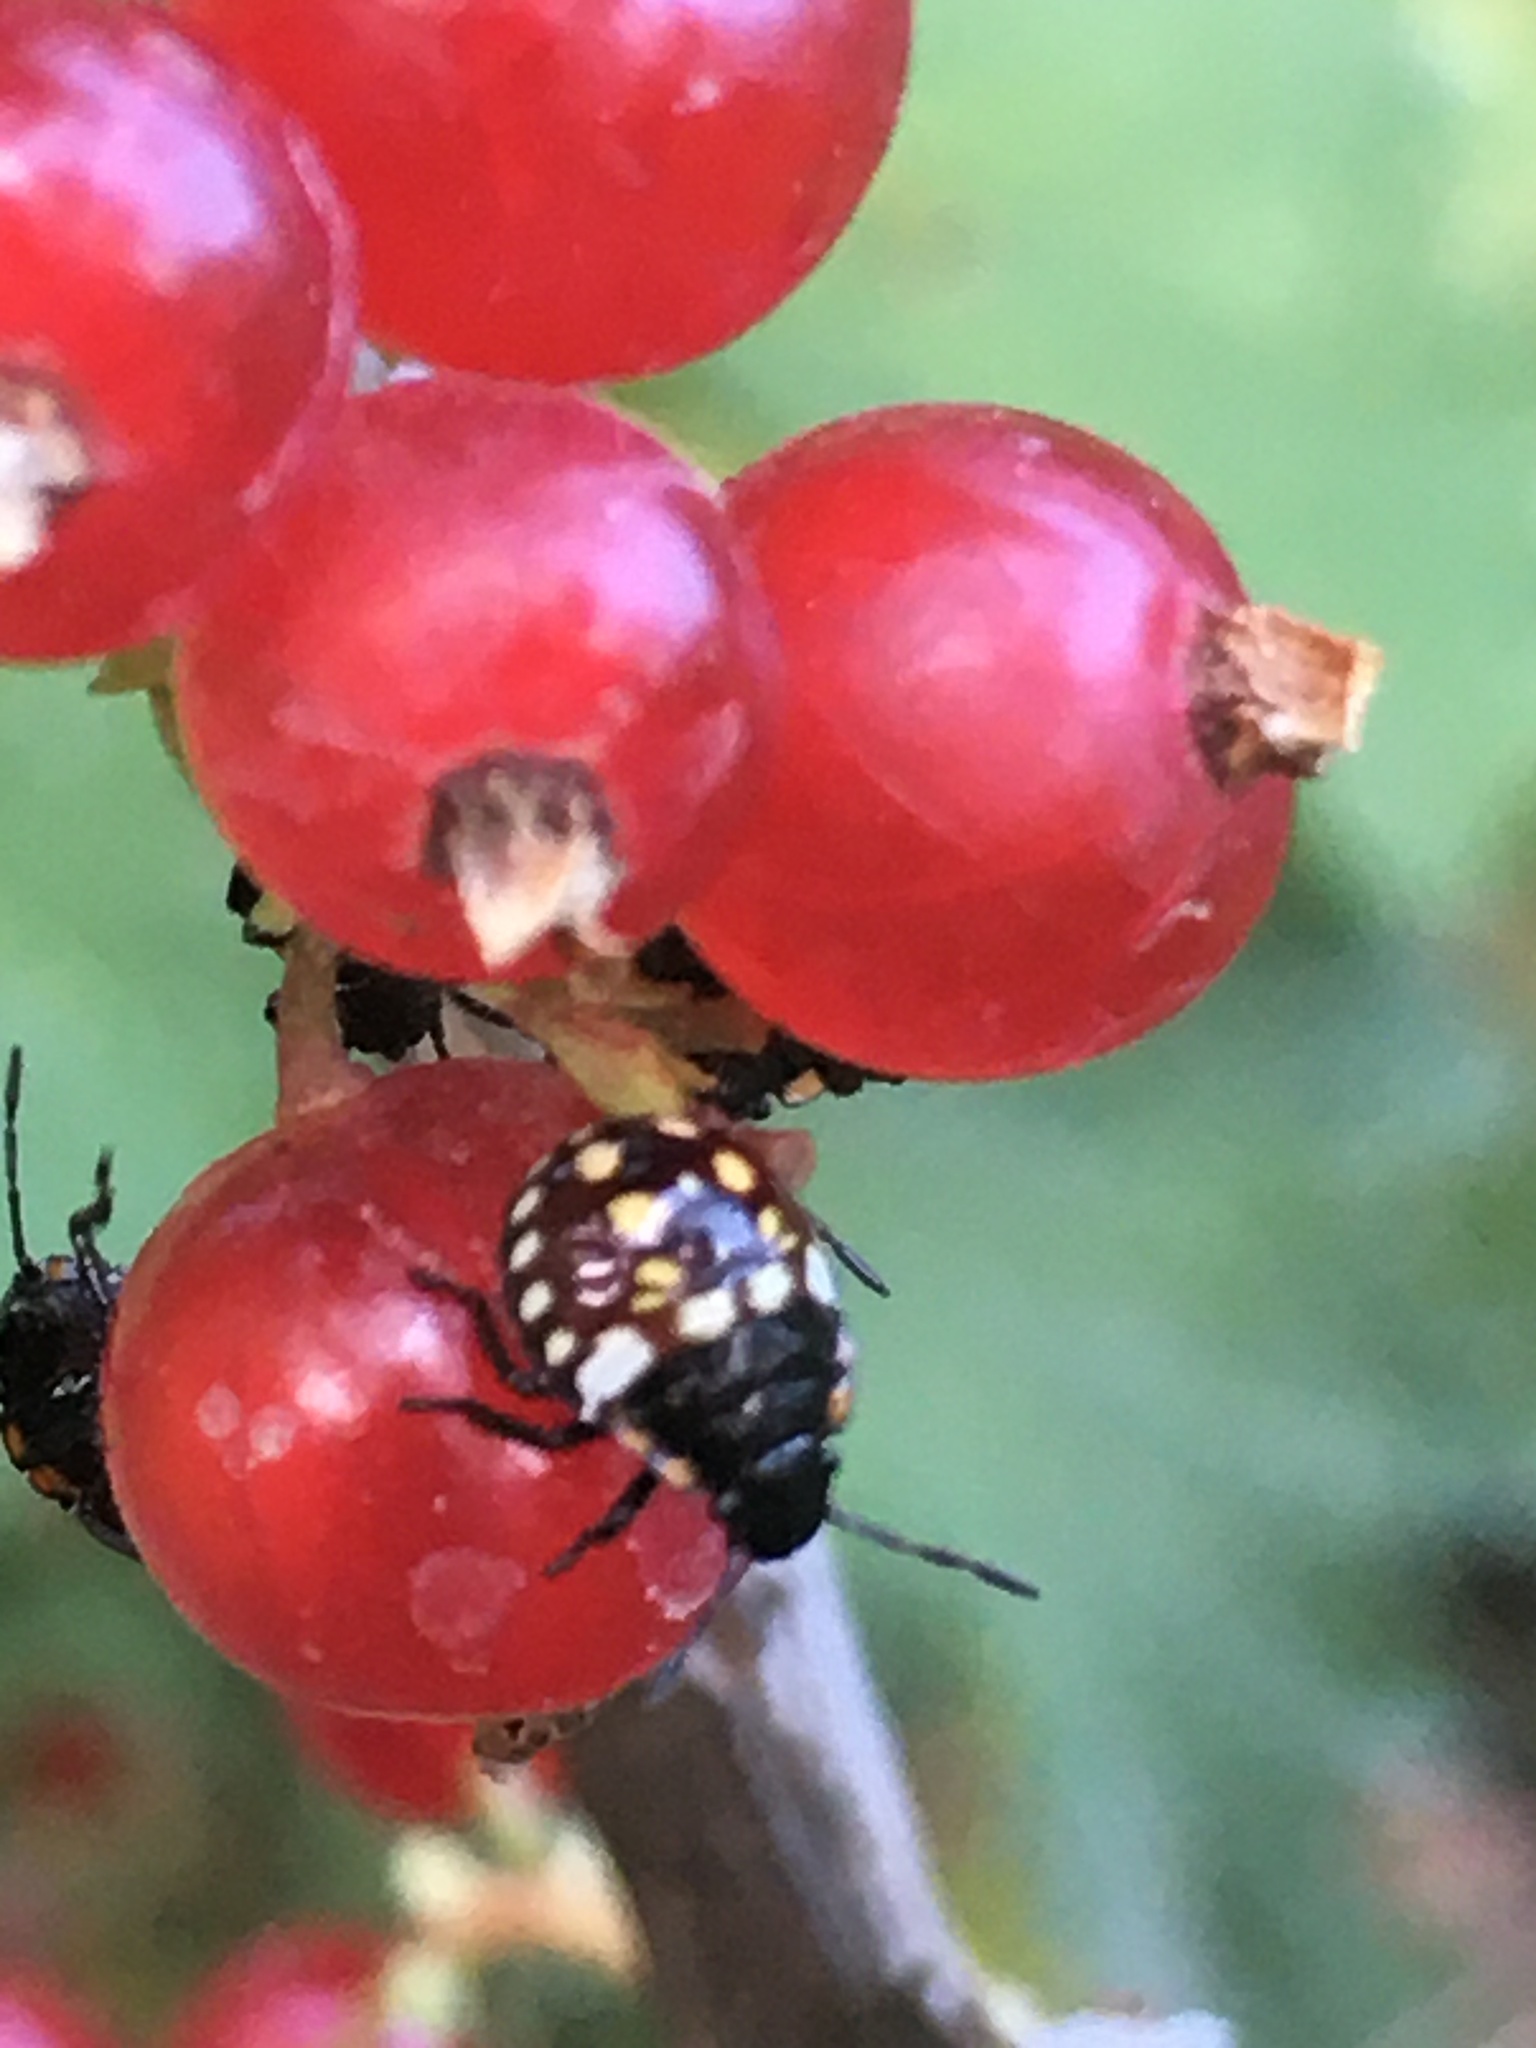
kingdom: Animalia
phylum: Arthropoda
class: Insecta
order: Hemiptera
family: Pentatomidae
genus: Nezara
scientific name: Nezara viridula
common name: Southern green stink bug
